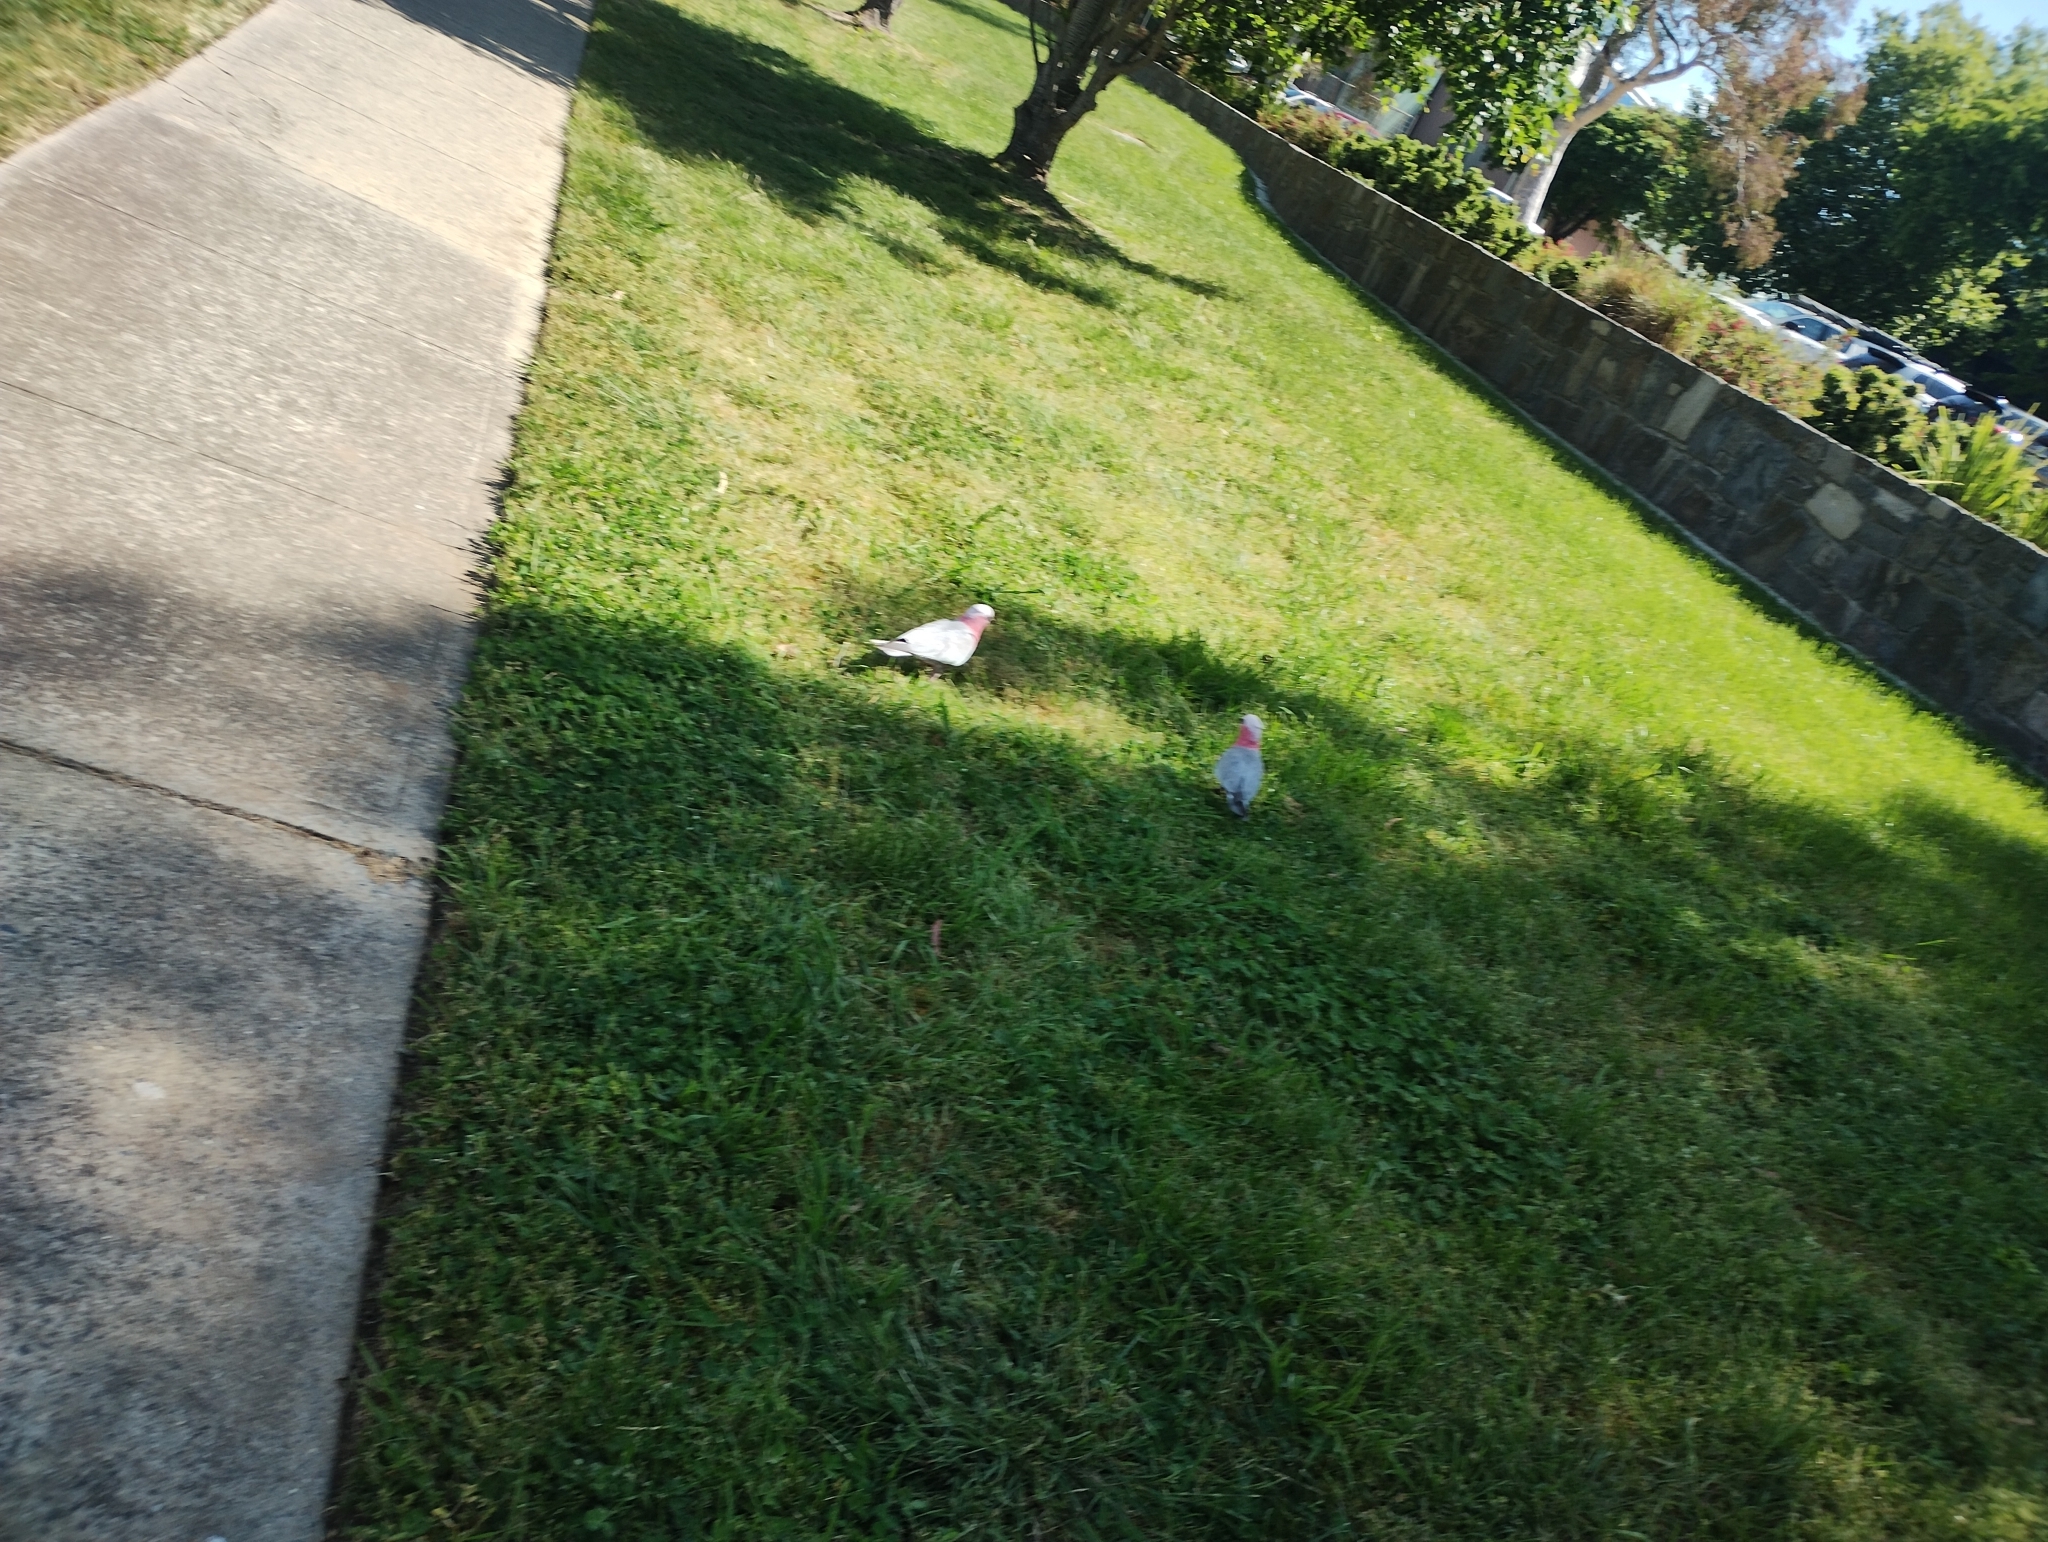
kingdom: Animalia
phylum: Chordata
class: Aves
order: Psittaciformes
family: Psittacidae
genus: Eolophus
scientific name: Eolophus roseicapilla
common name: Galah
